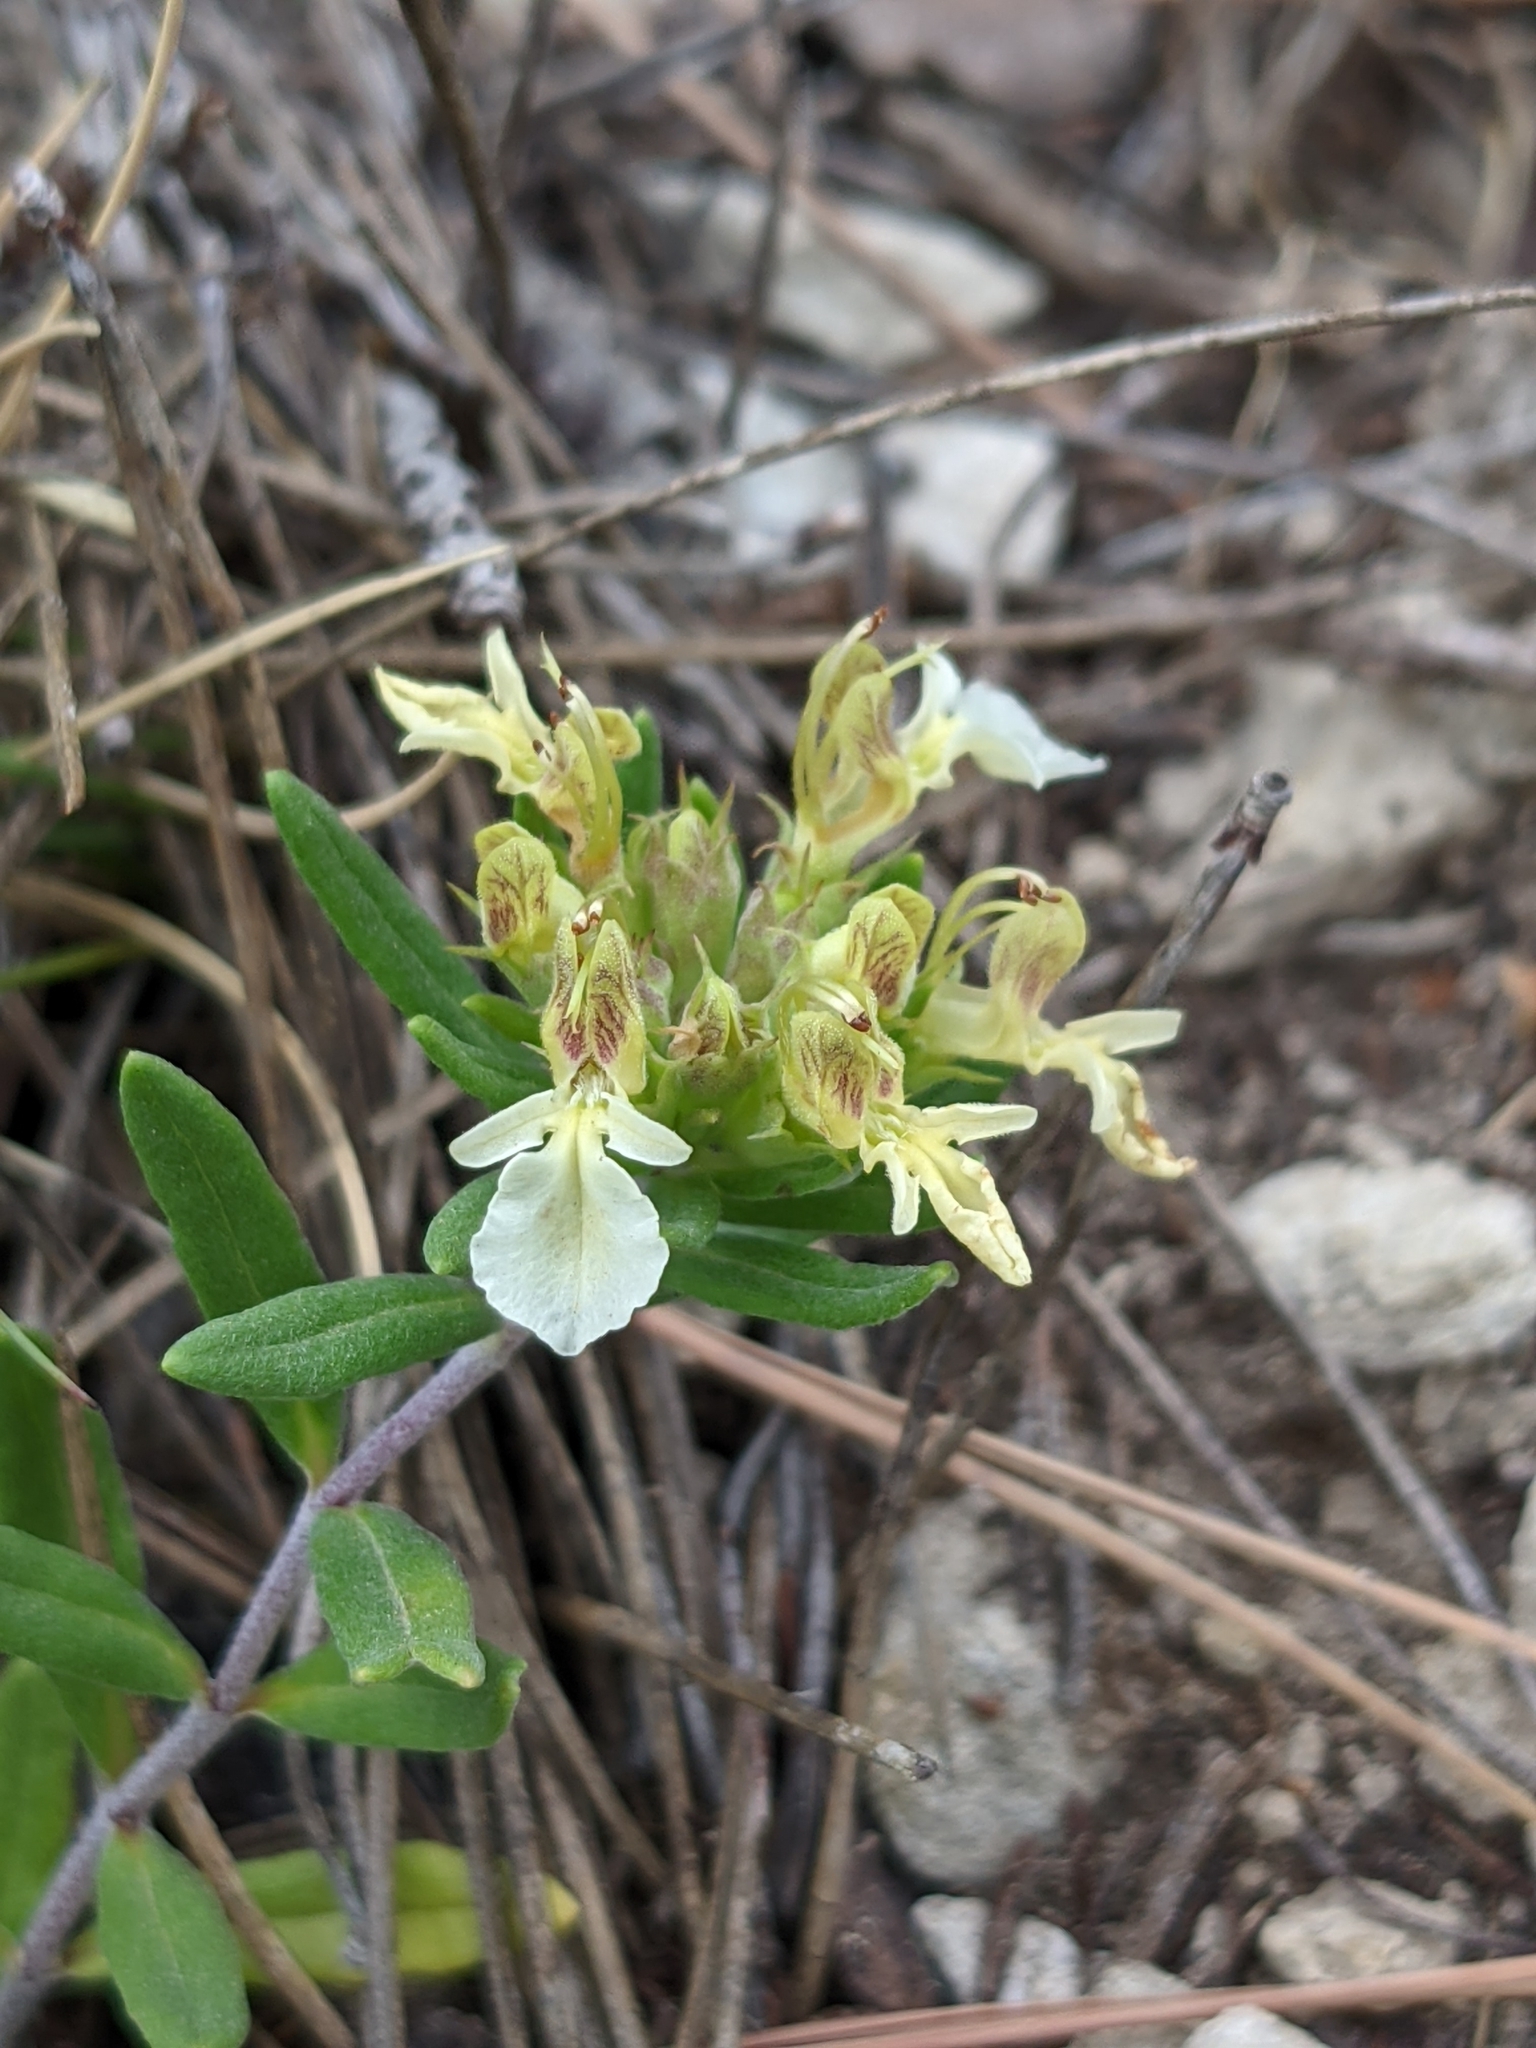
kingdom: Plantae
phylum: Tracheophyta
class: Magnoliopsida
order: Lamiales
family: Lamiaceae
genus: Teucrium
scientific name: Teucrium montanum
